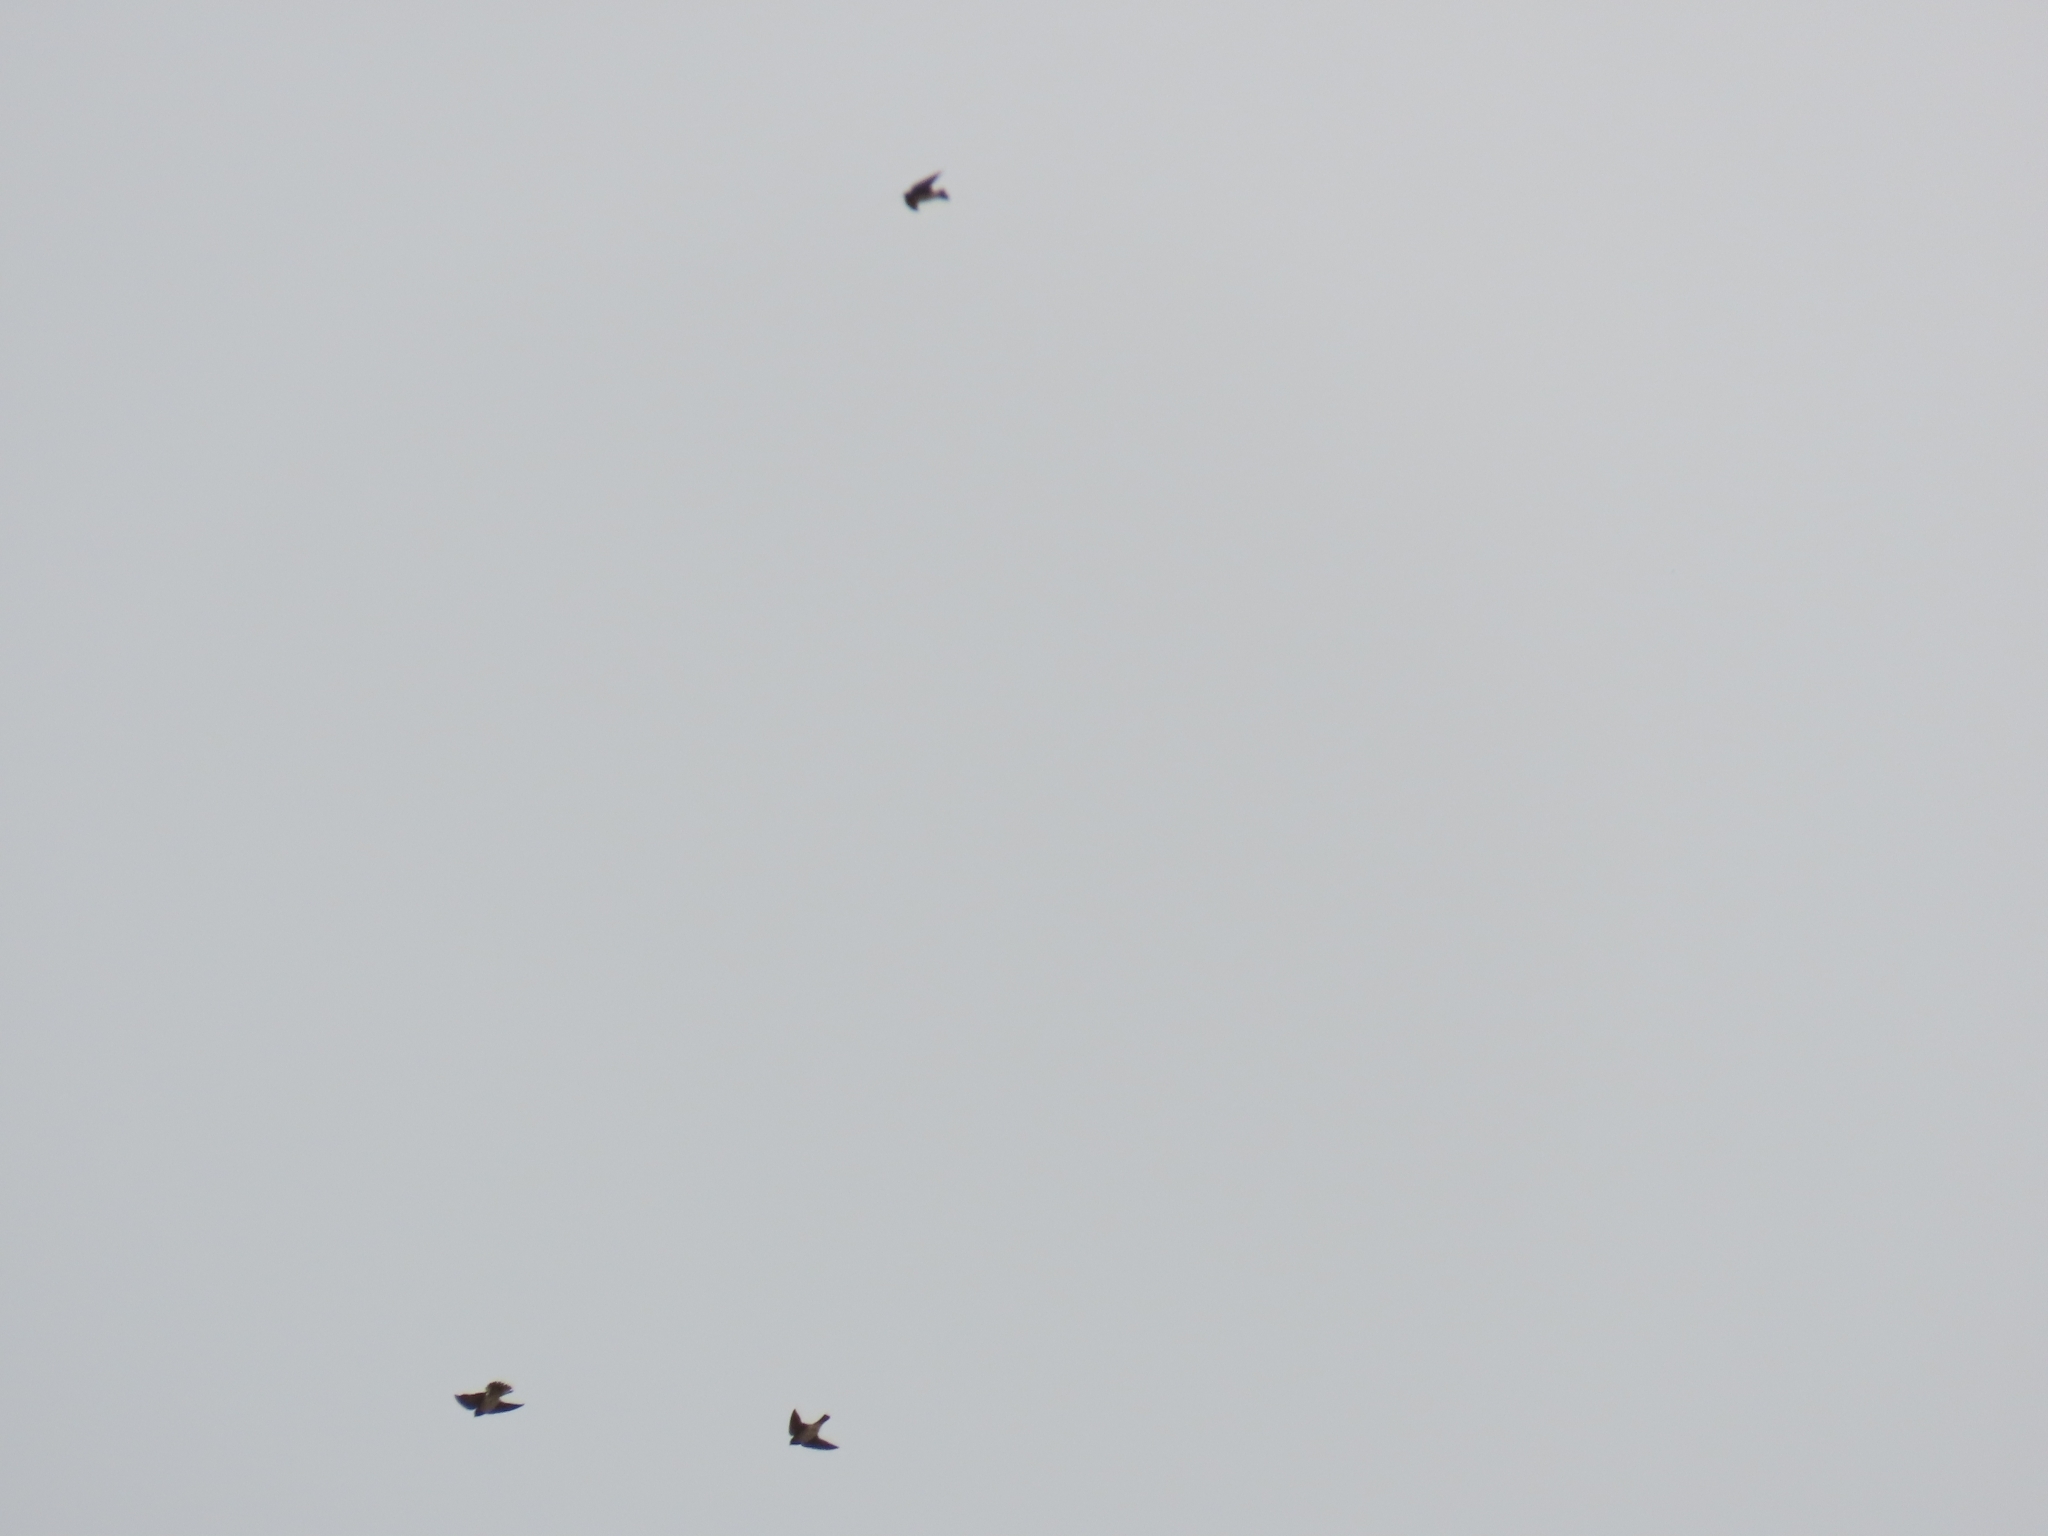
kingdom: Animalia
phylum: Chordata
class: Aves
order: Passeriformes
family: Hirundinidae
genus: Petrochelidon
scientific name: Petrochelidon pyrrhonota
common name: American cliff swallow
